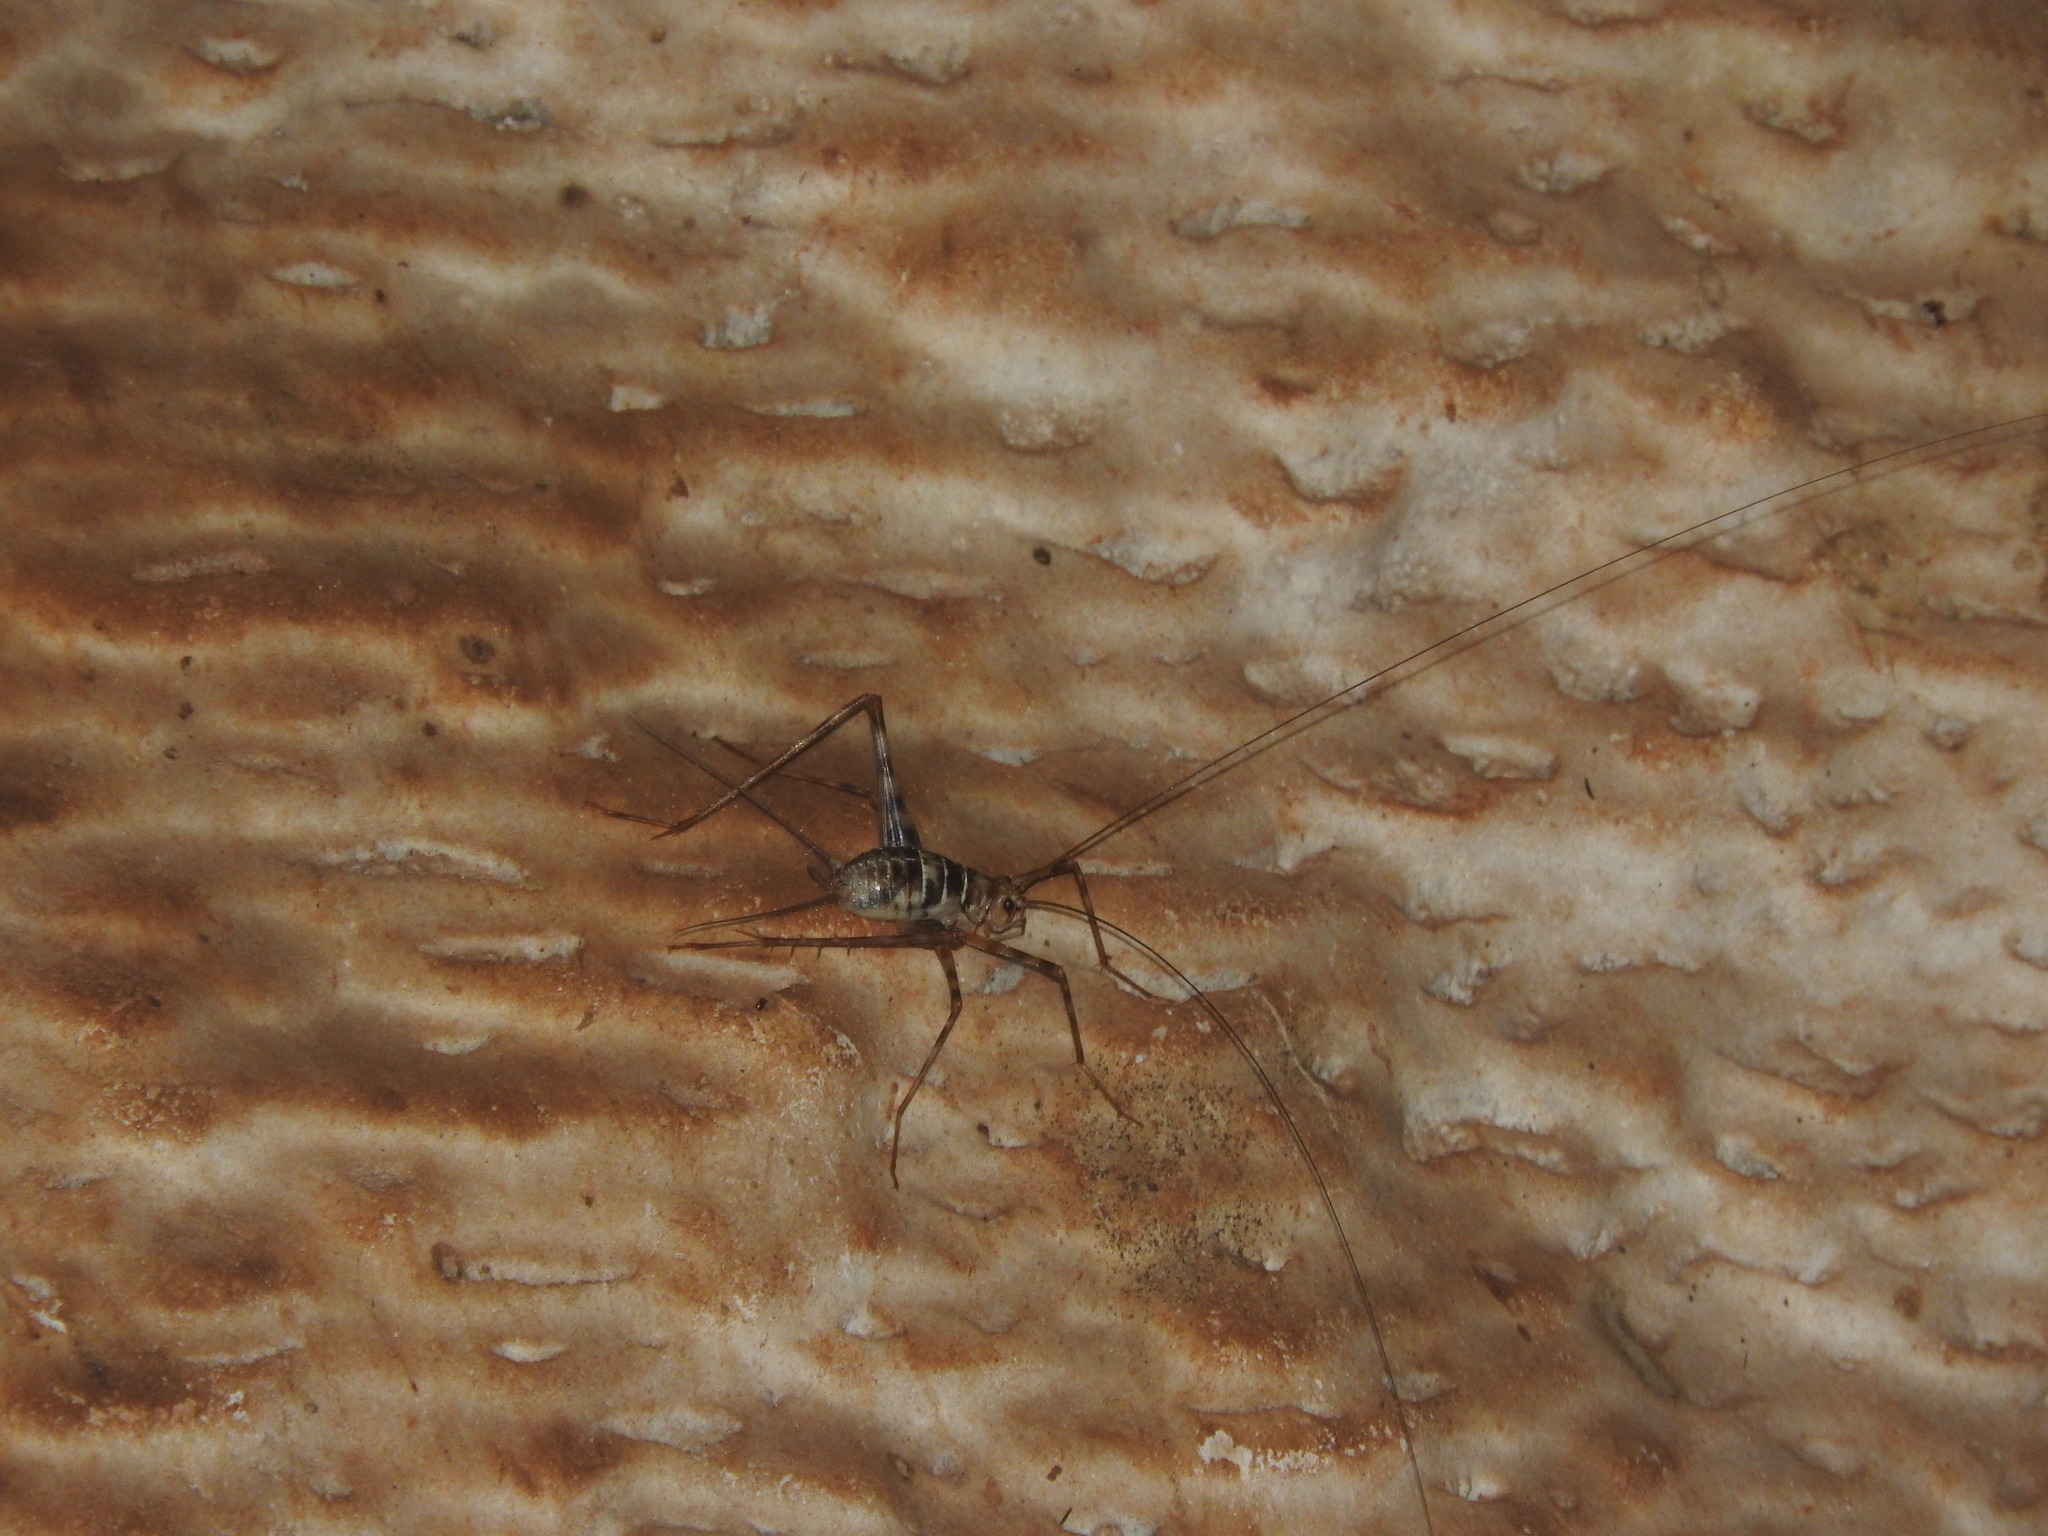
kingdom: Animalia
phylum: Arthropoda
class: Insecta
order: Orthoptera
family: Phalangopsidae
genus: Mayagryllus
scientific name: Mayagryllus yucatanus
